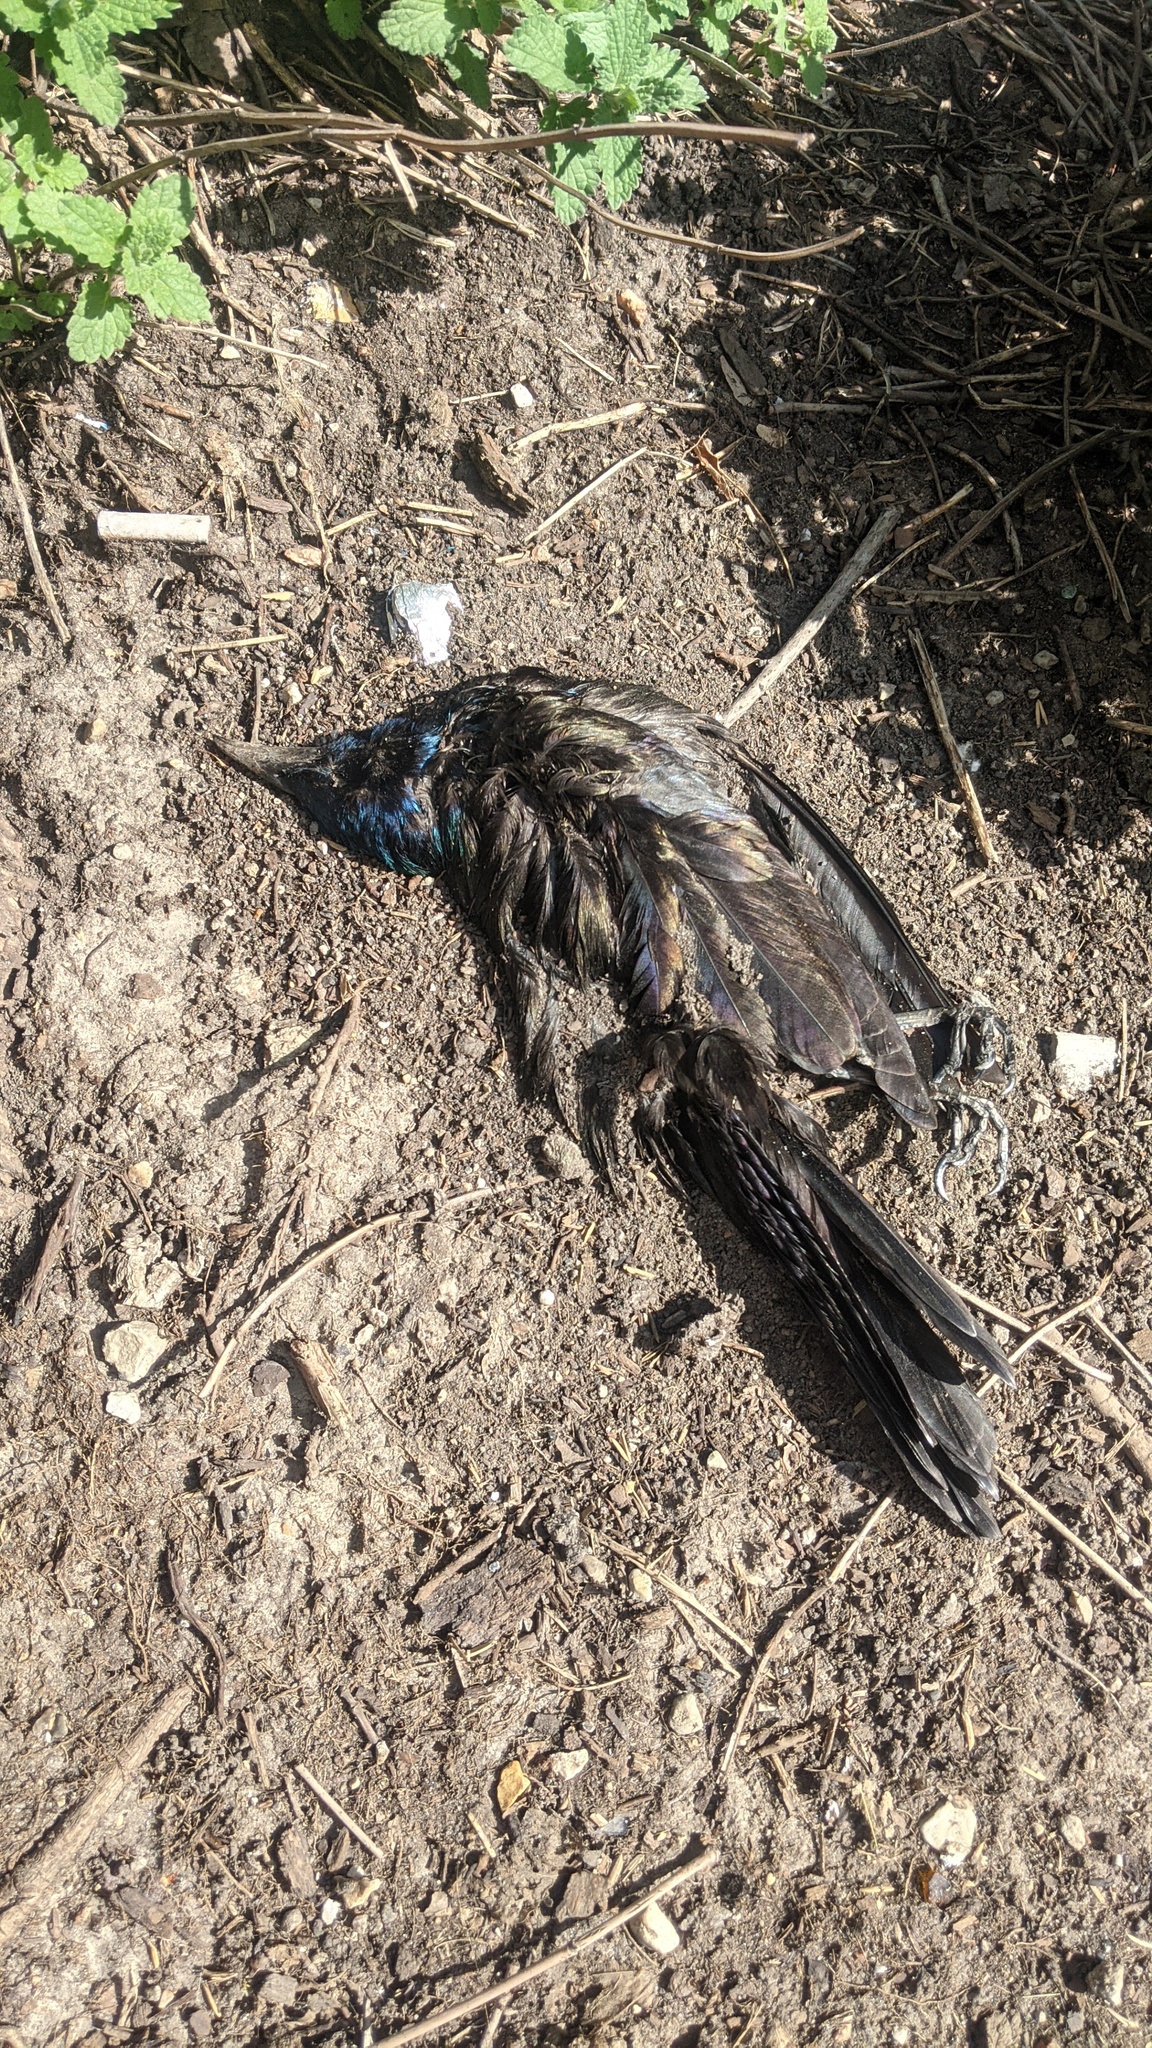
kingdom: Animalia
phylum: Chordata
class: Aves
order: Passeriformes
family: Icteridae
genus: Quiscalus
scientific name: Quiscalus quiscula
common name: Common grackle
